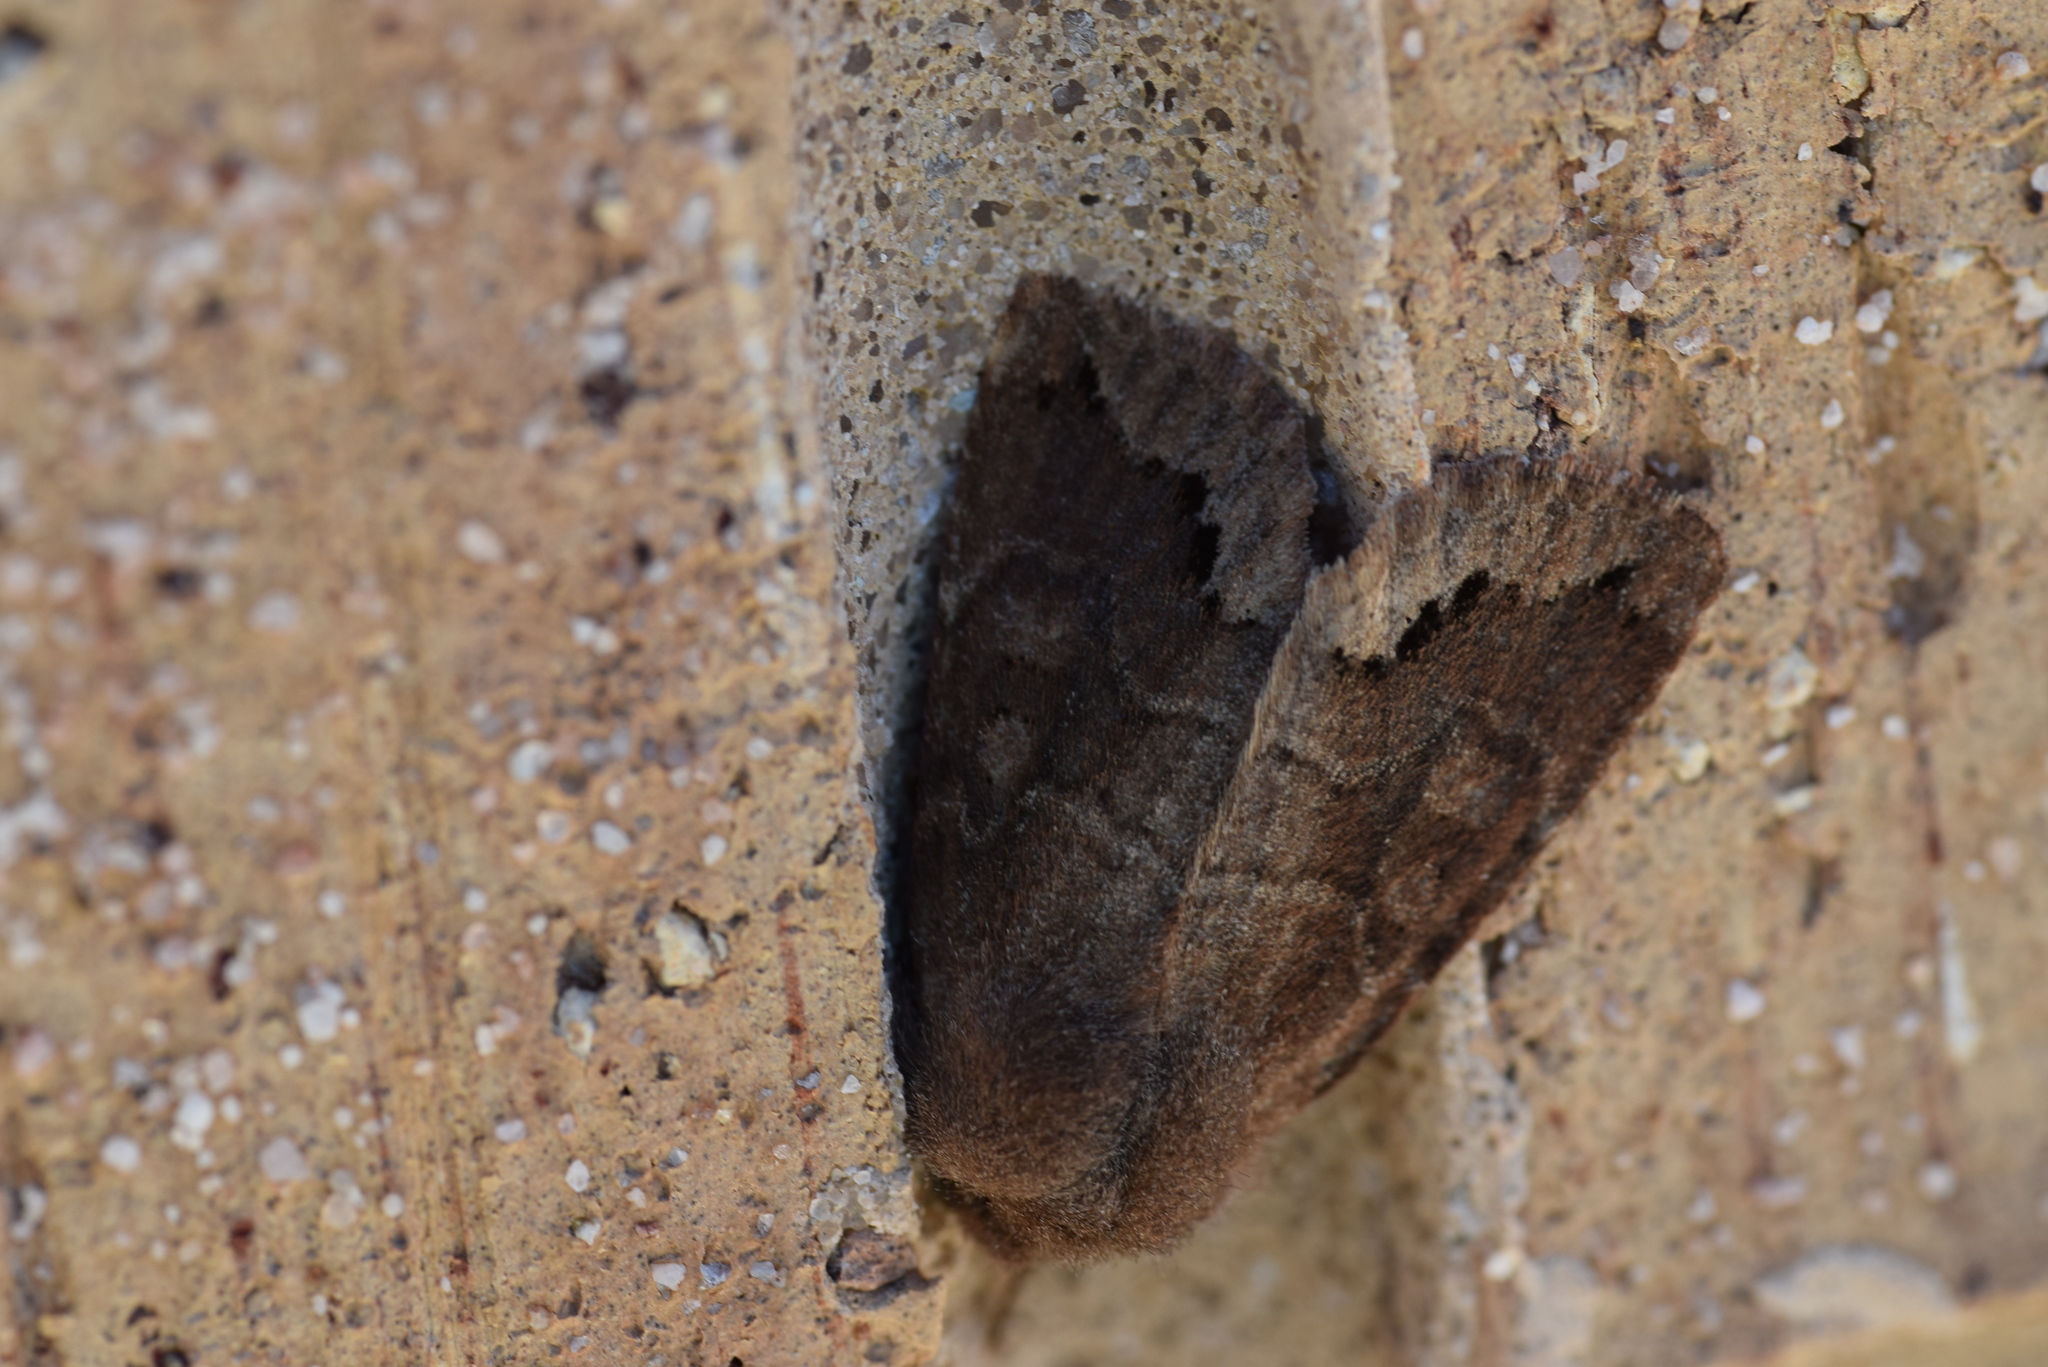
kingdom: Animalia
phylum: Arthropoda
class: Insecta
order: Lepidoptera
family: Noctuidae
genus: Orthosia
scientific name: Orthosia garmani
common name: Garman's quaker
